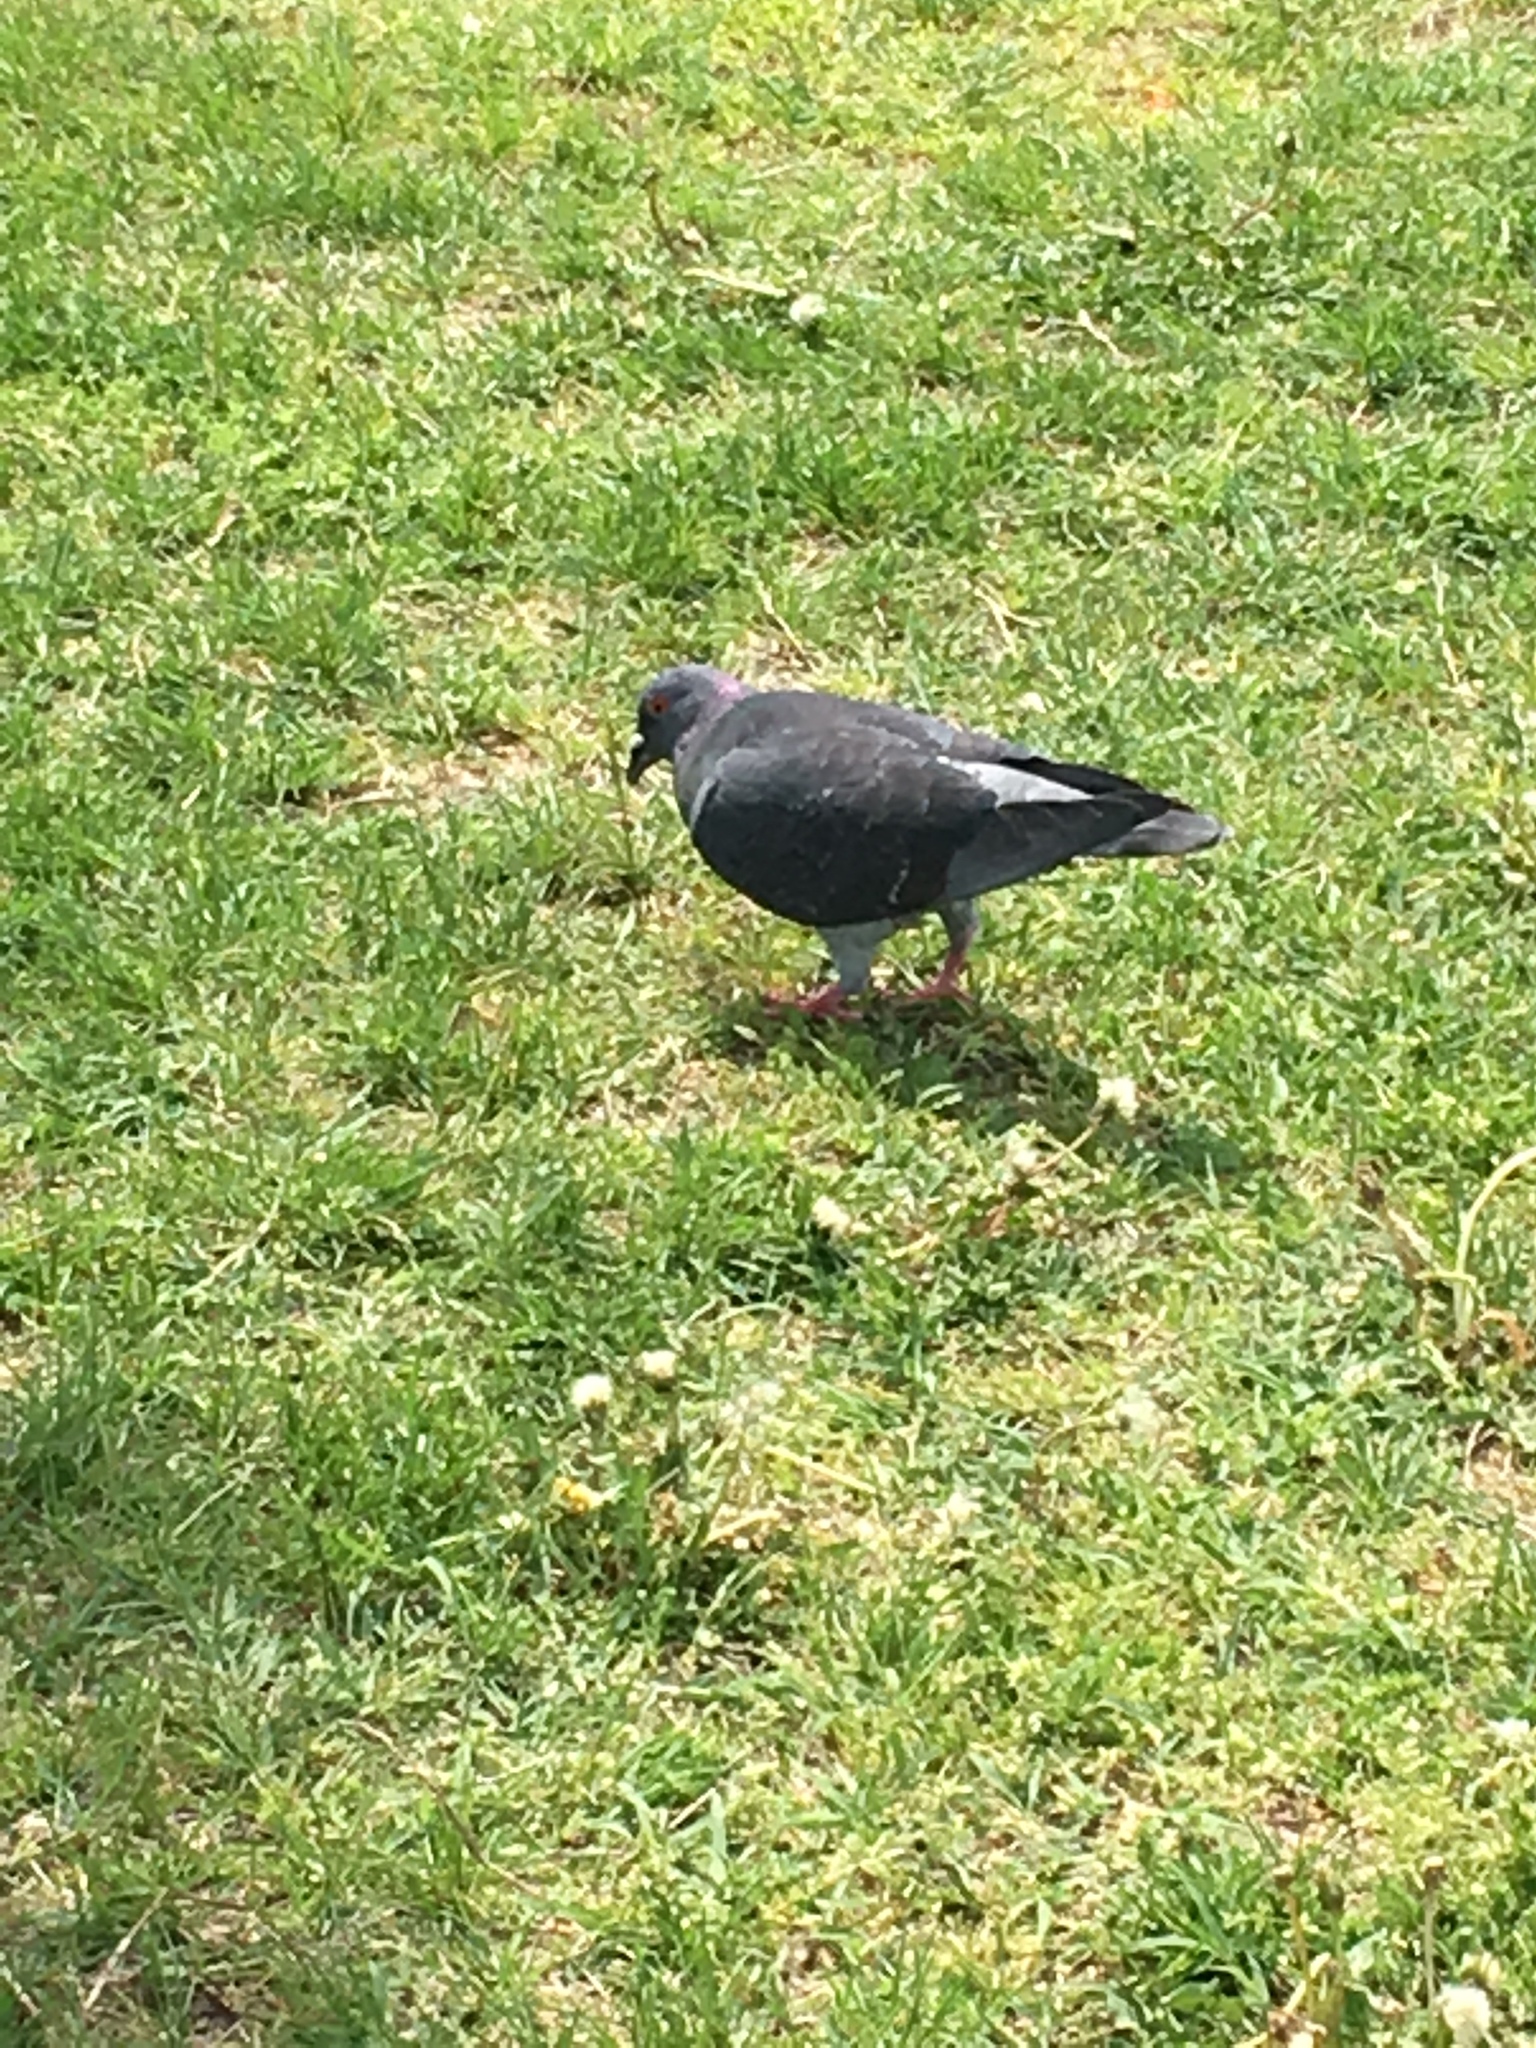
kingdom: Animalia
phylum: Chordata
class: Aves
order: Columbiformes
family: Columbidae
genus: Columba
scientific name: Columba livia
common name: Rock pigeon
